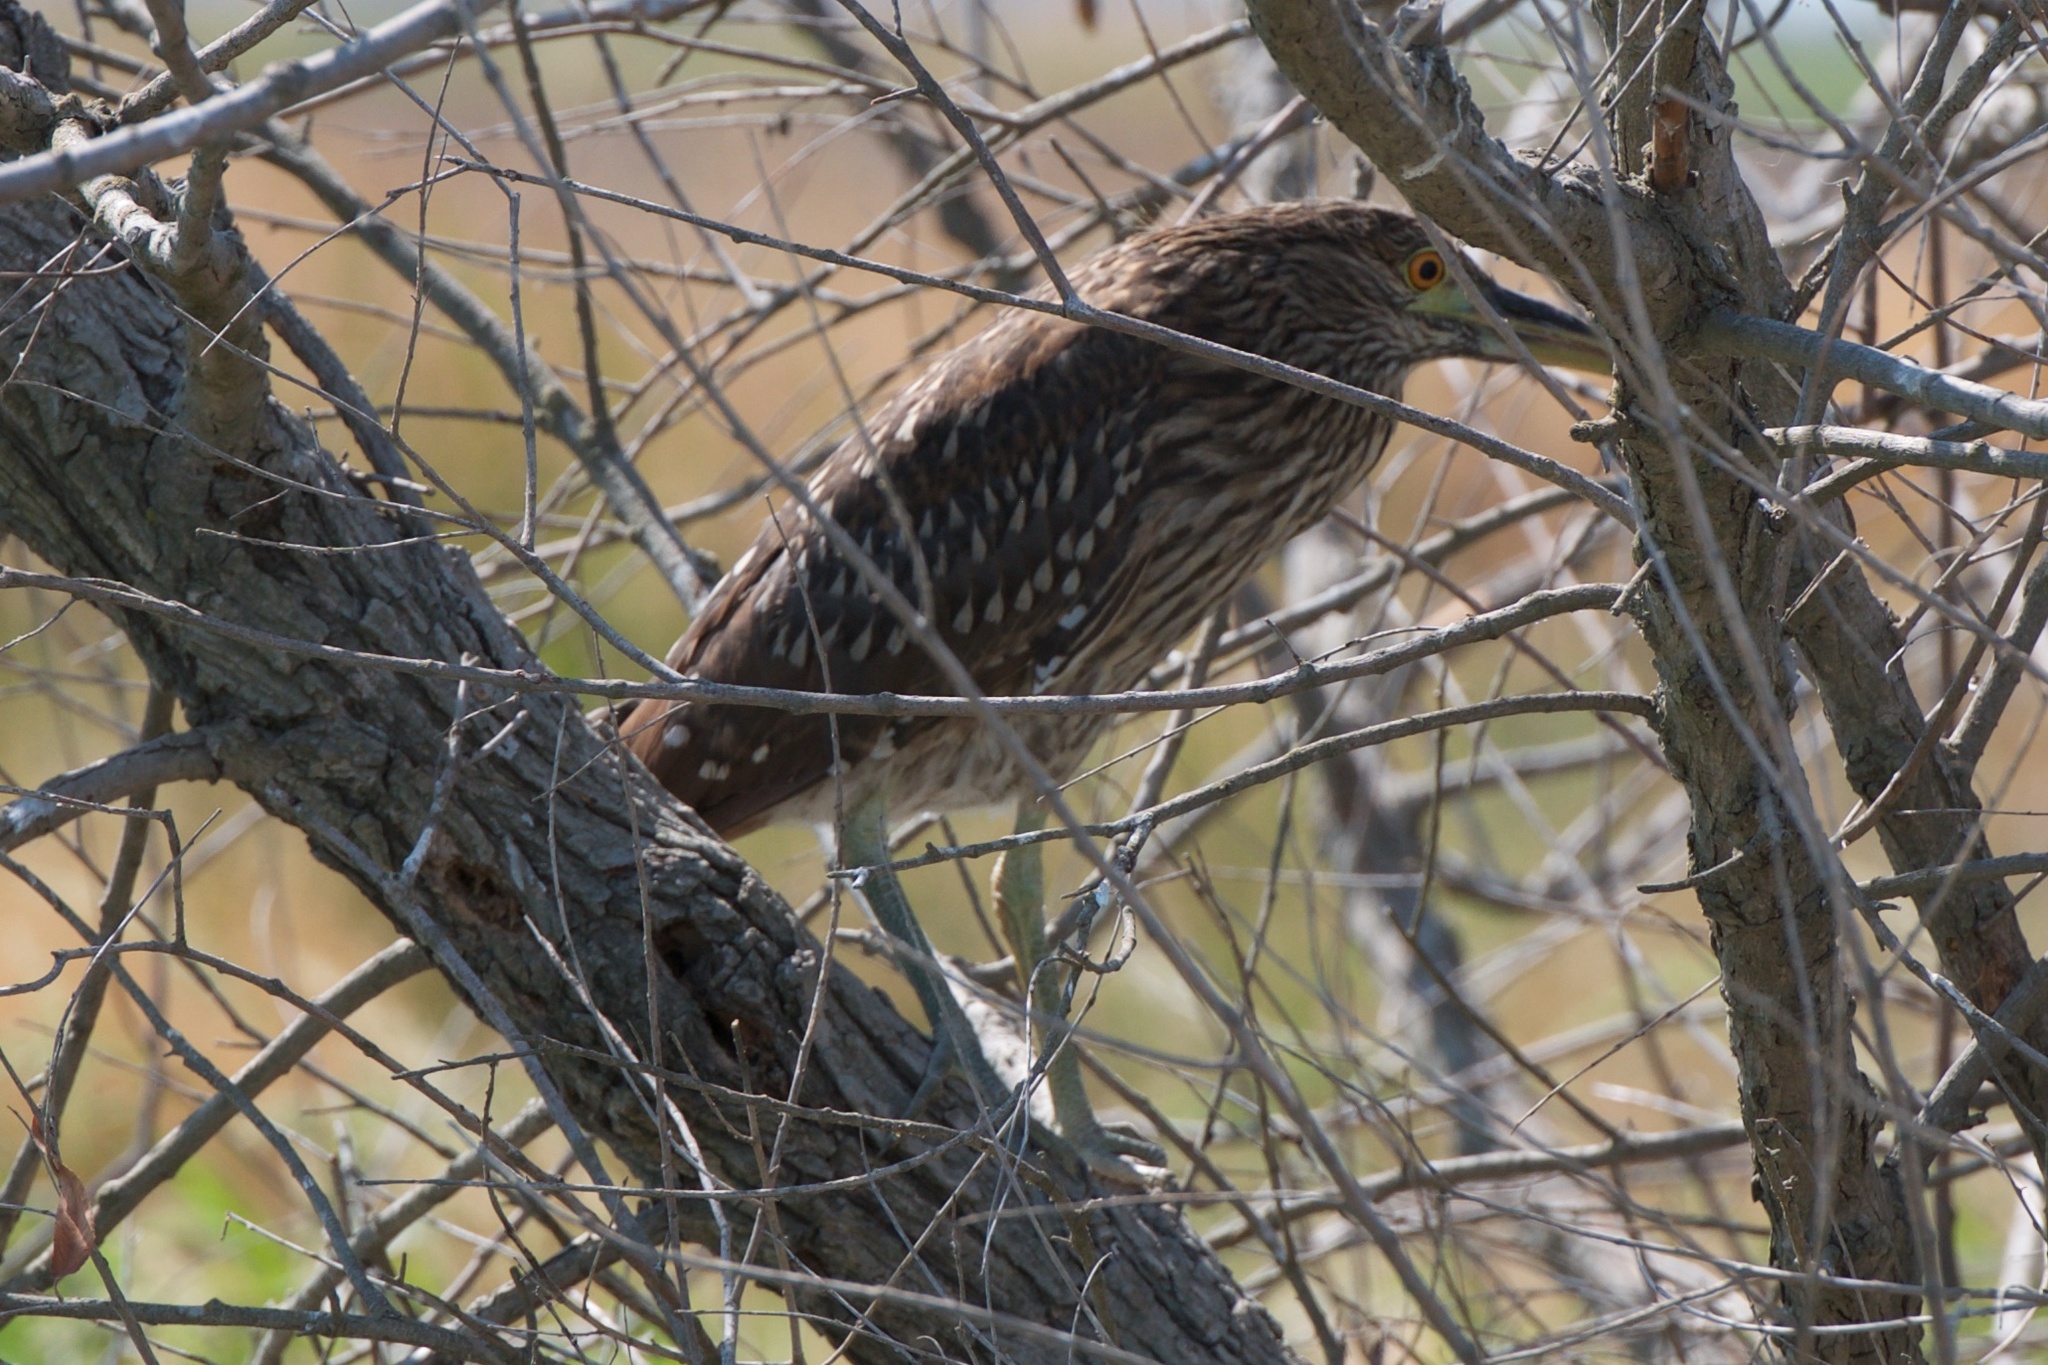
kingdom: Animalia
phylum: Chordata
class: Aves
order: Pelecaniformes
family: Ardeidae
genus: Nycticorax
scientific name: Nycticorax nycticorax
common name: Black-crowned night heron
